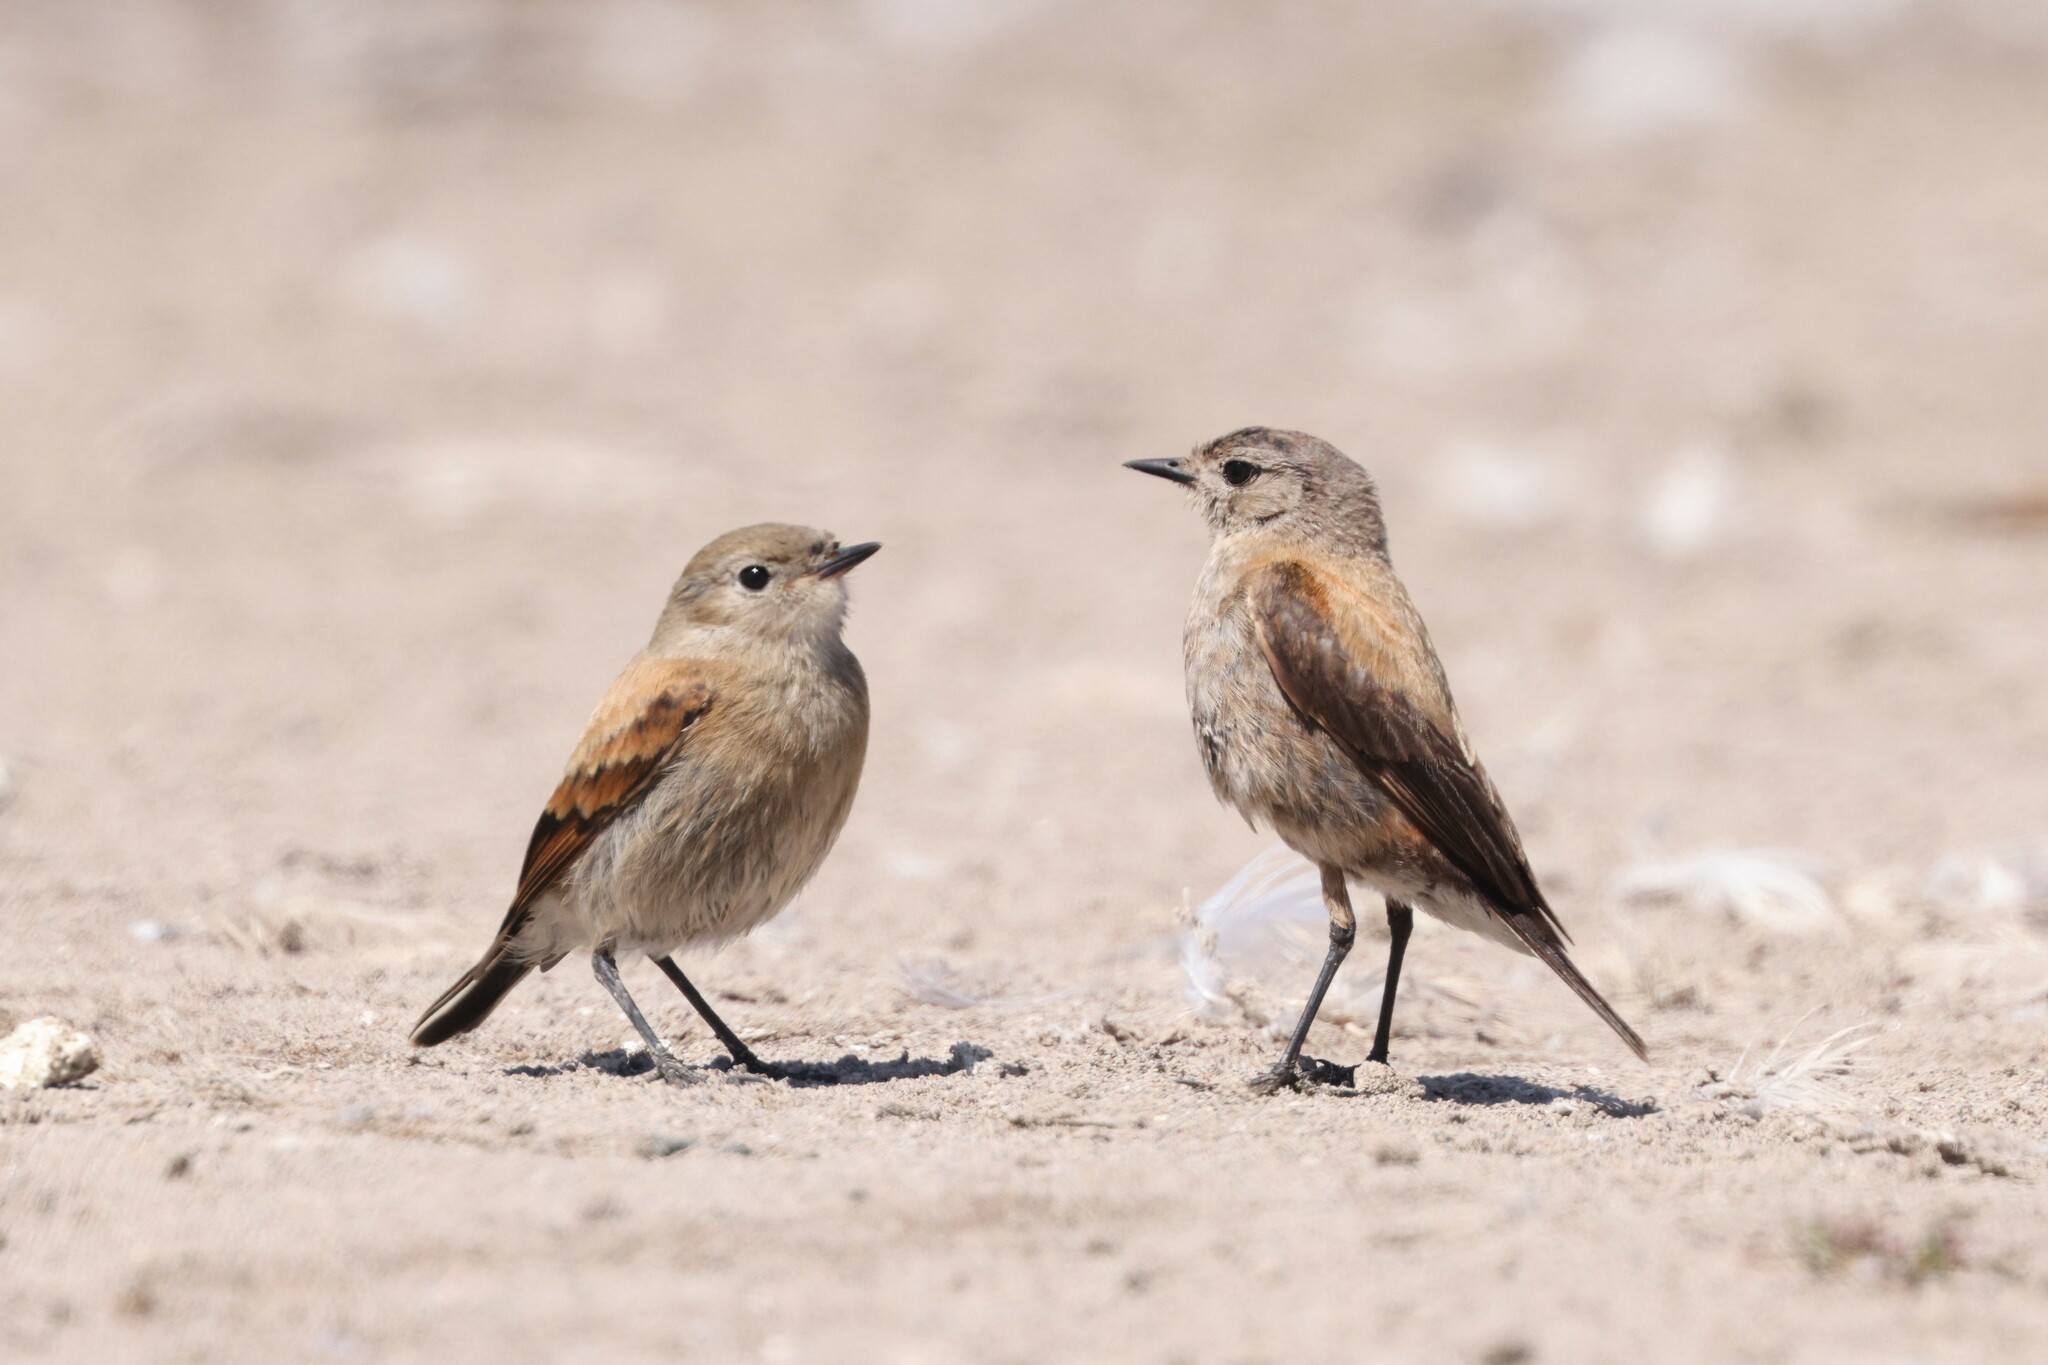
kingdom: Animalia
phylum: Chordata
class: Aves
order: Passeriformes
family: Tyrannidae
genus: Lessonia
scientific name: Lessonia rufa
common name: Austral negrito
